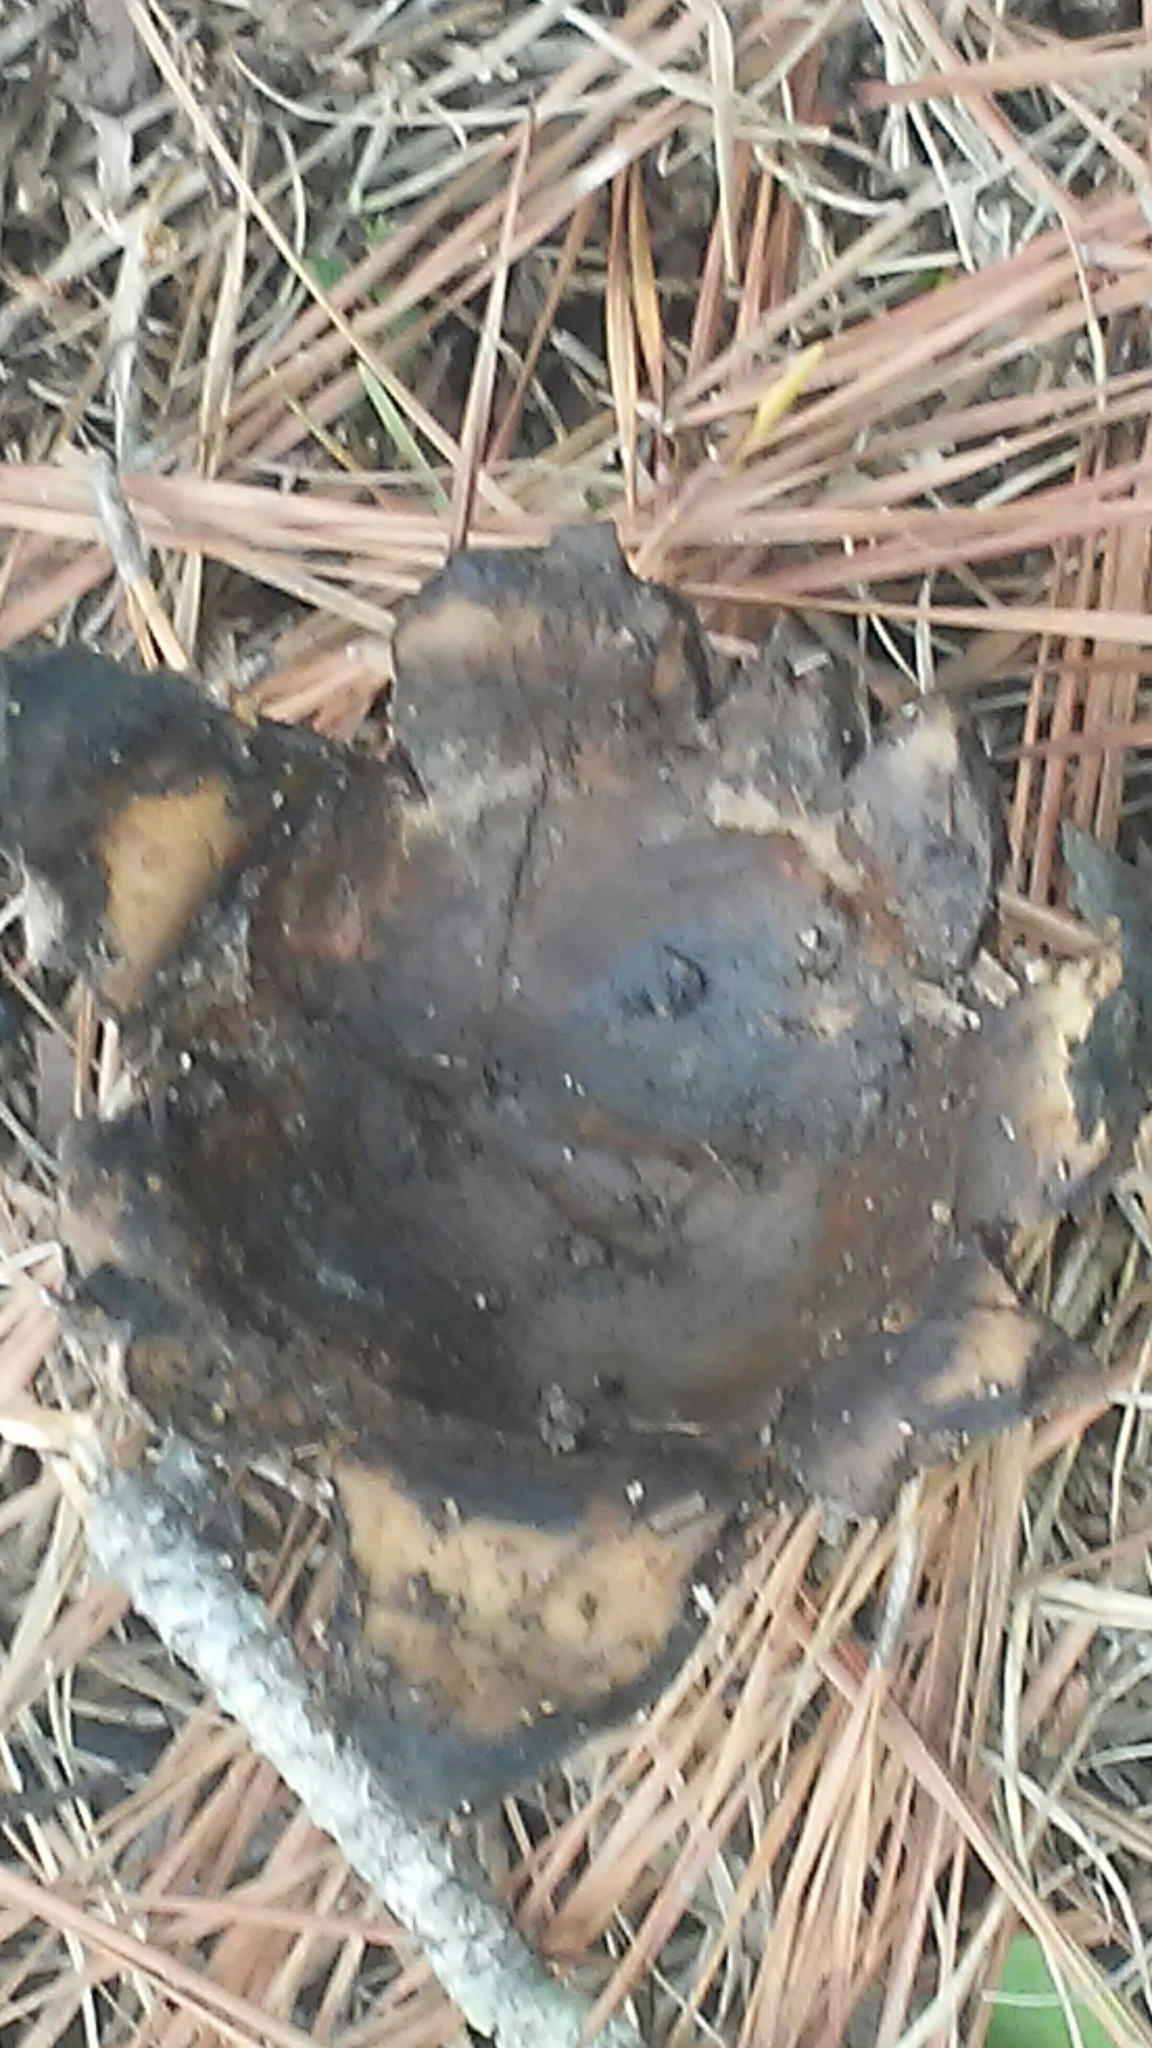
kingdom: Fungi
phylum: Basidiomycota
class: Agaricomycetes
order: Boletales
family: Sclerodermataceae
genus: Scleroderma
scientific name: Scleroderma polyrhizum
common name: Many-rooted earthball
